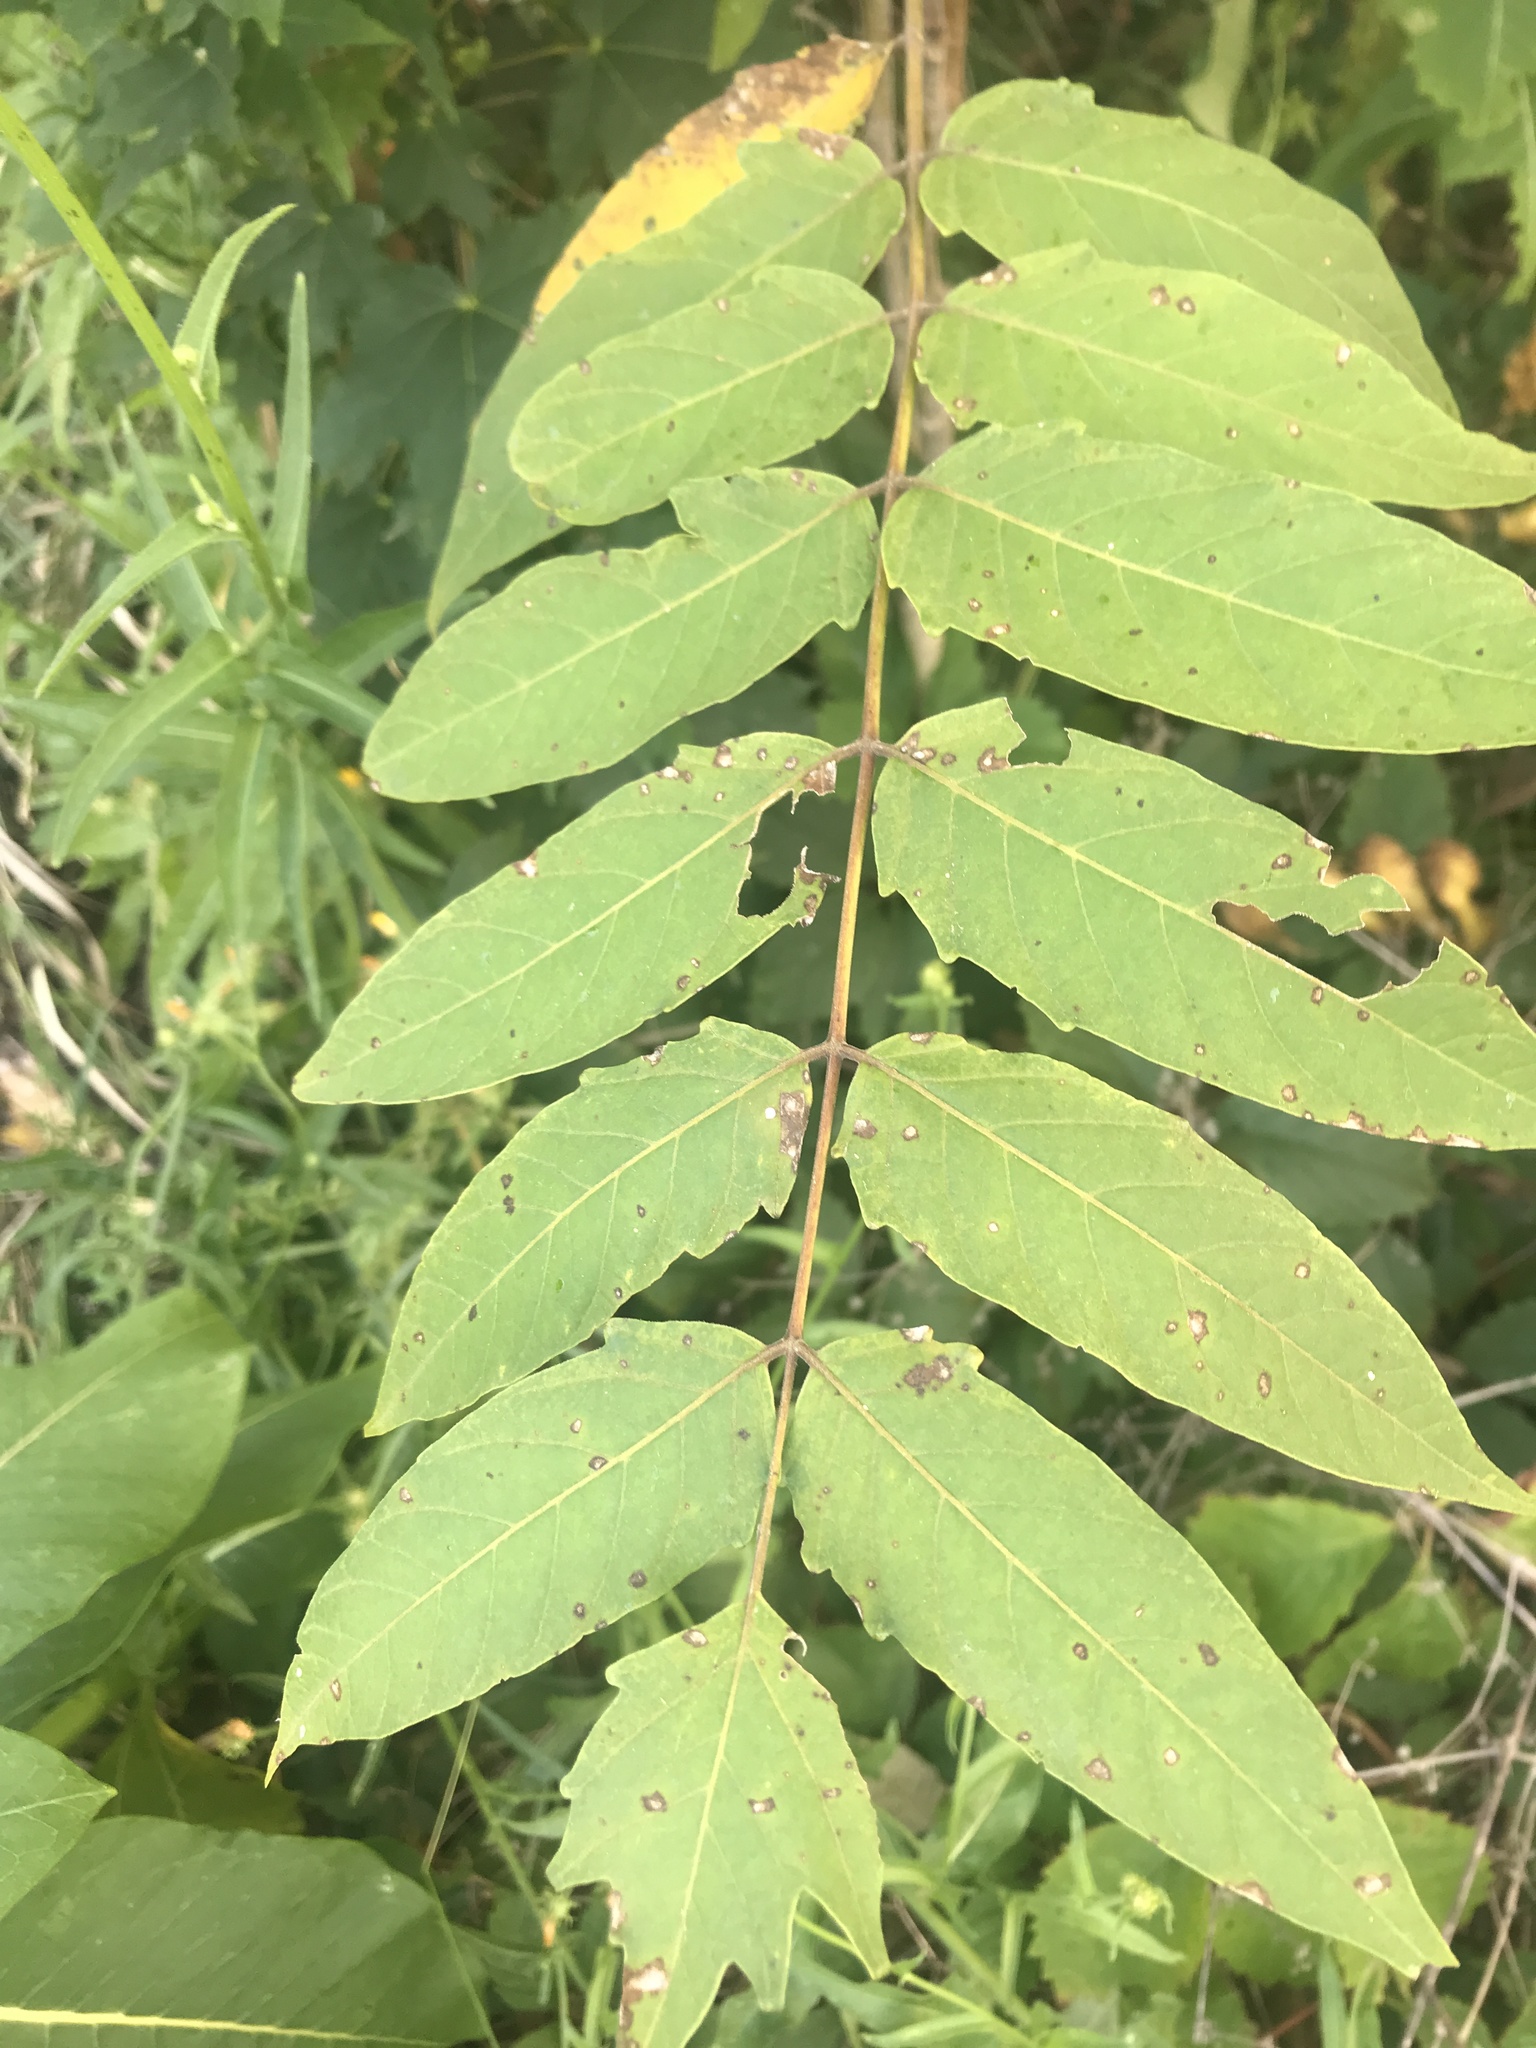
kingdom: Plantae
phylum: Tracheophyta
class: Magnoliopsida
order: Sapindales
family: Simaroubaceae
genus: Ailanthus
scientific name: Ailanthus altissima
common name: Tree-of-heaven
